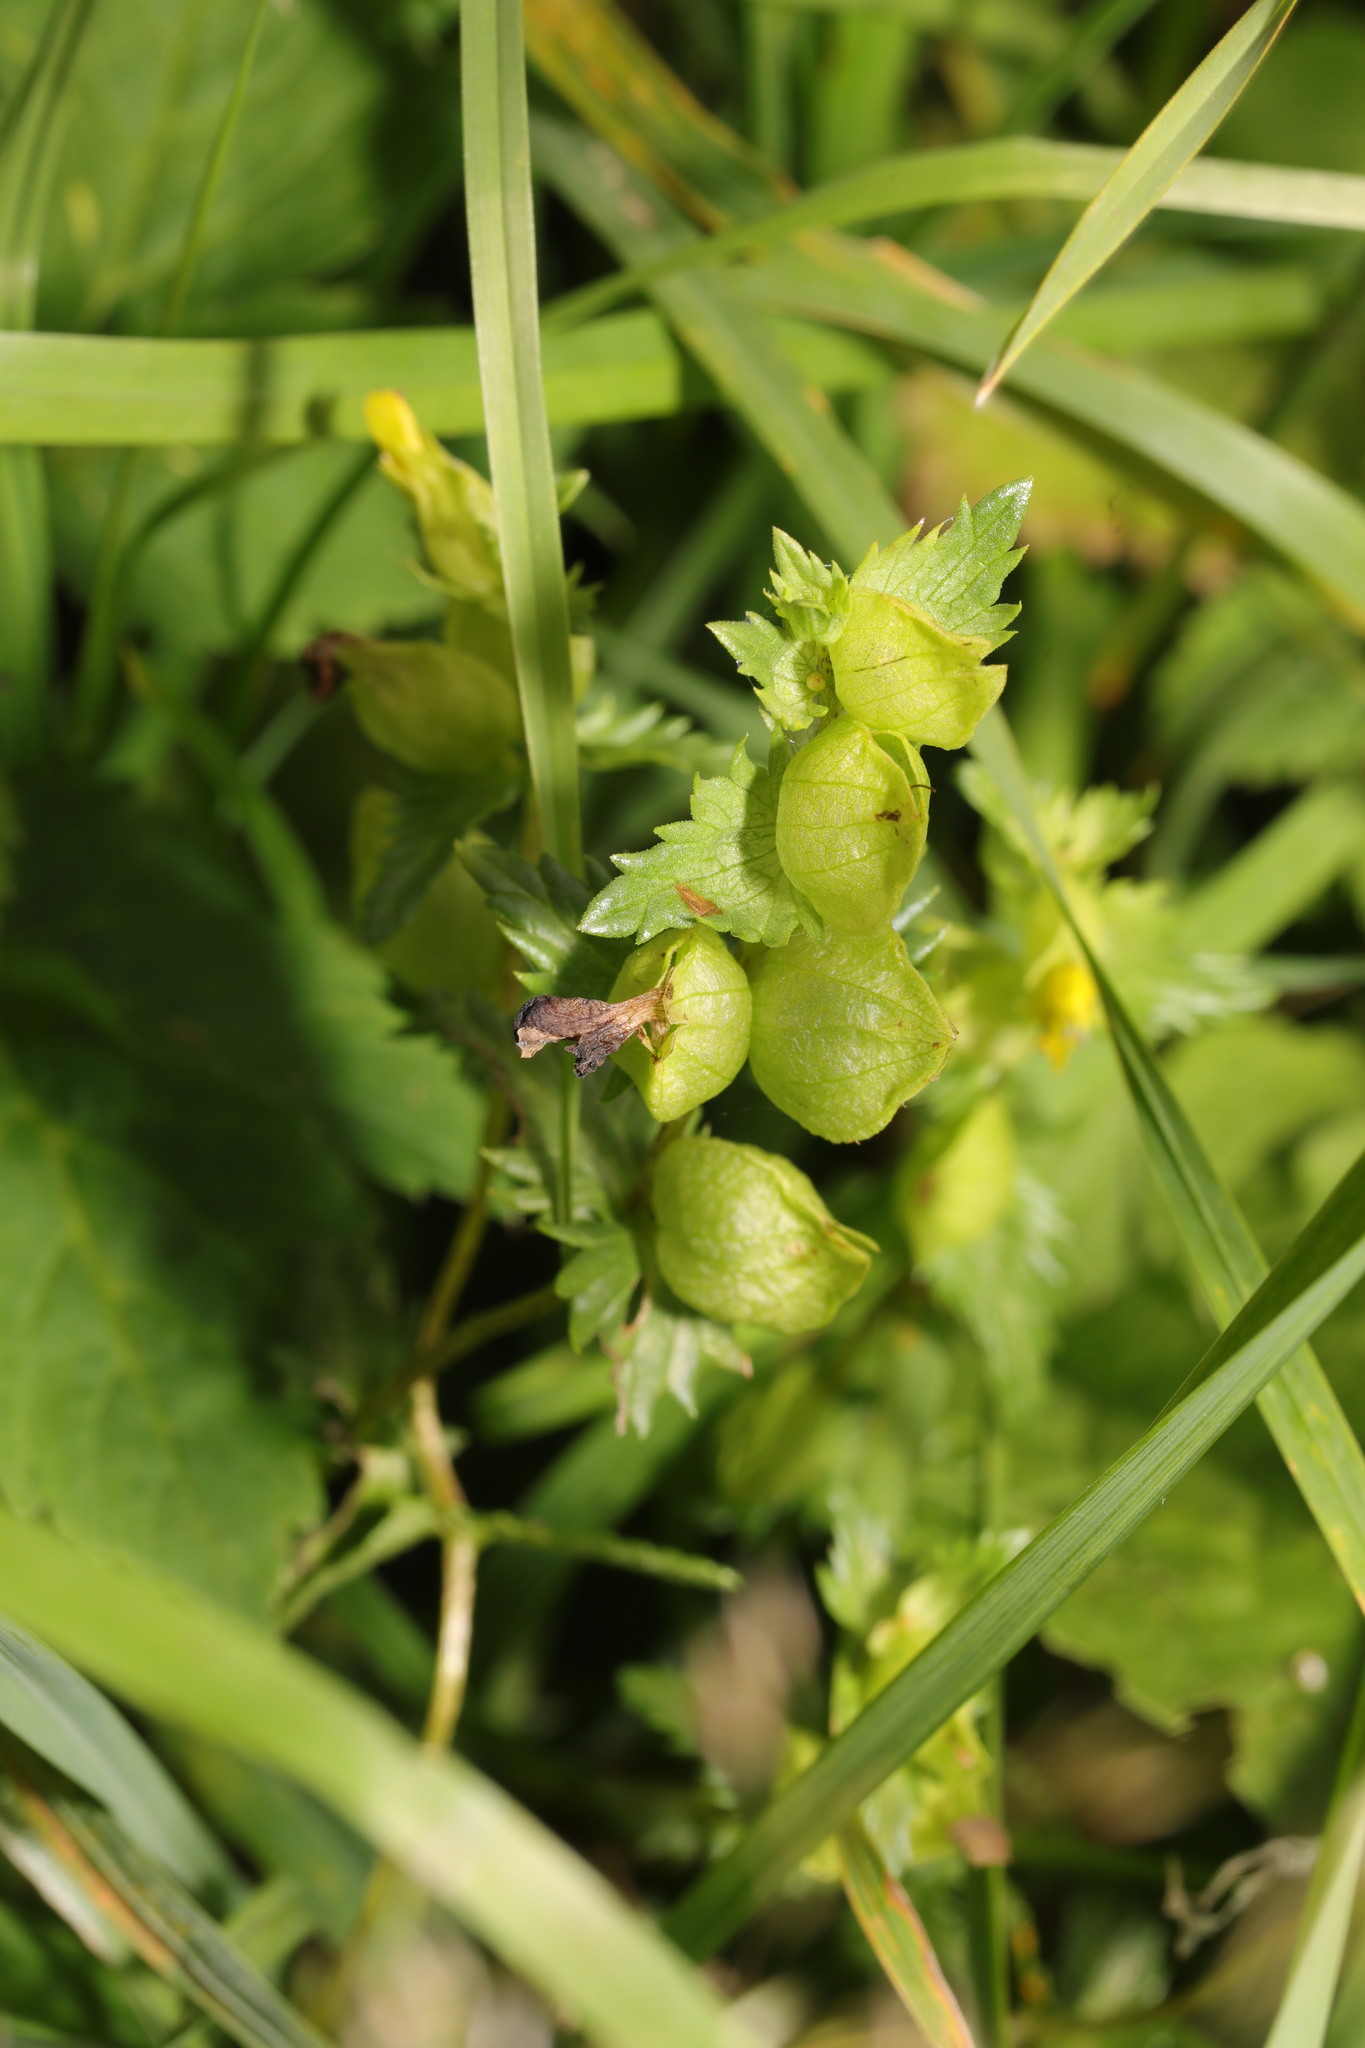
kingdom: Plantae
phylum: Tracheophyta
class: Magnoliopsida
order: Lamiales
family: Orobanchaceae
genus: Rhinanthus
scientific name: Rhinanthus minor
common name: Yellow-rattle
